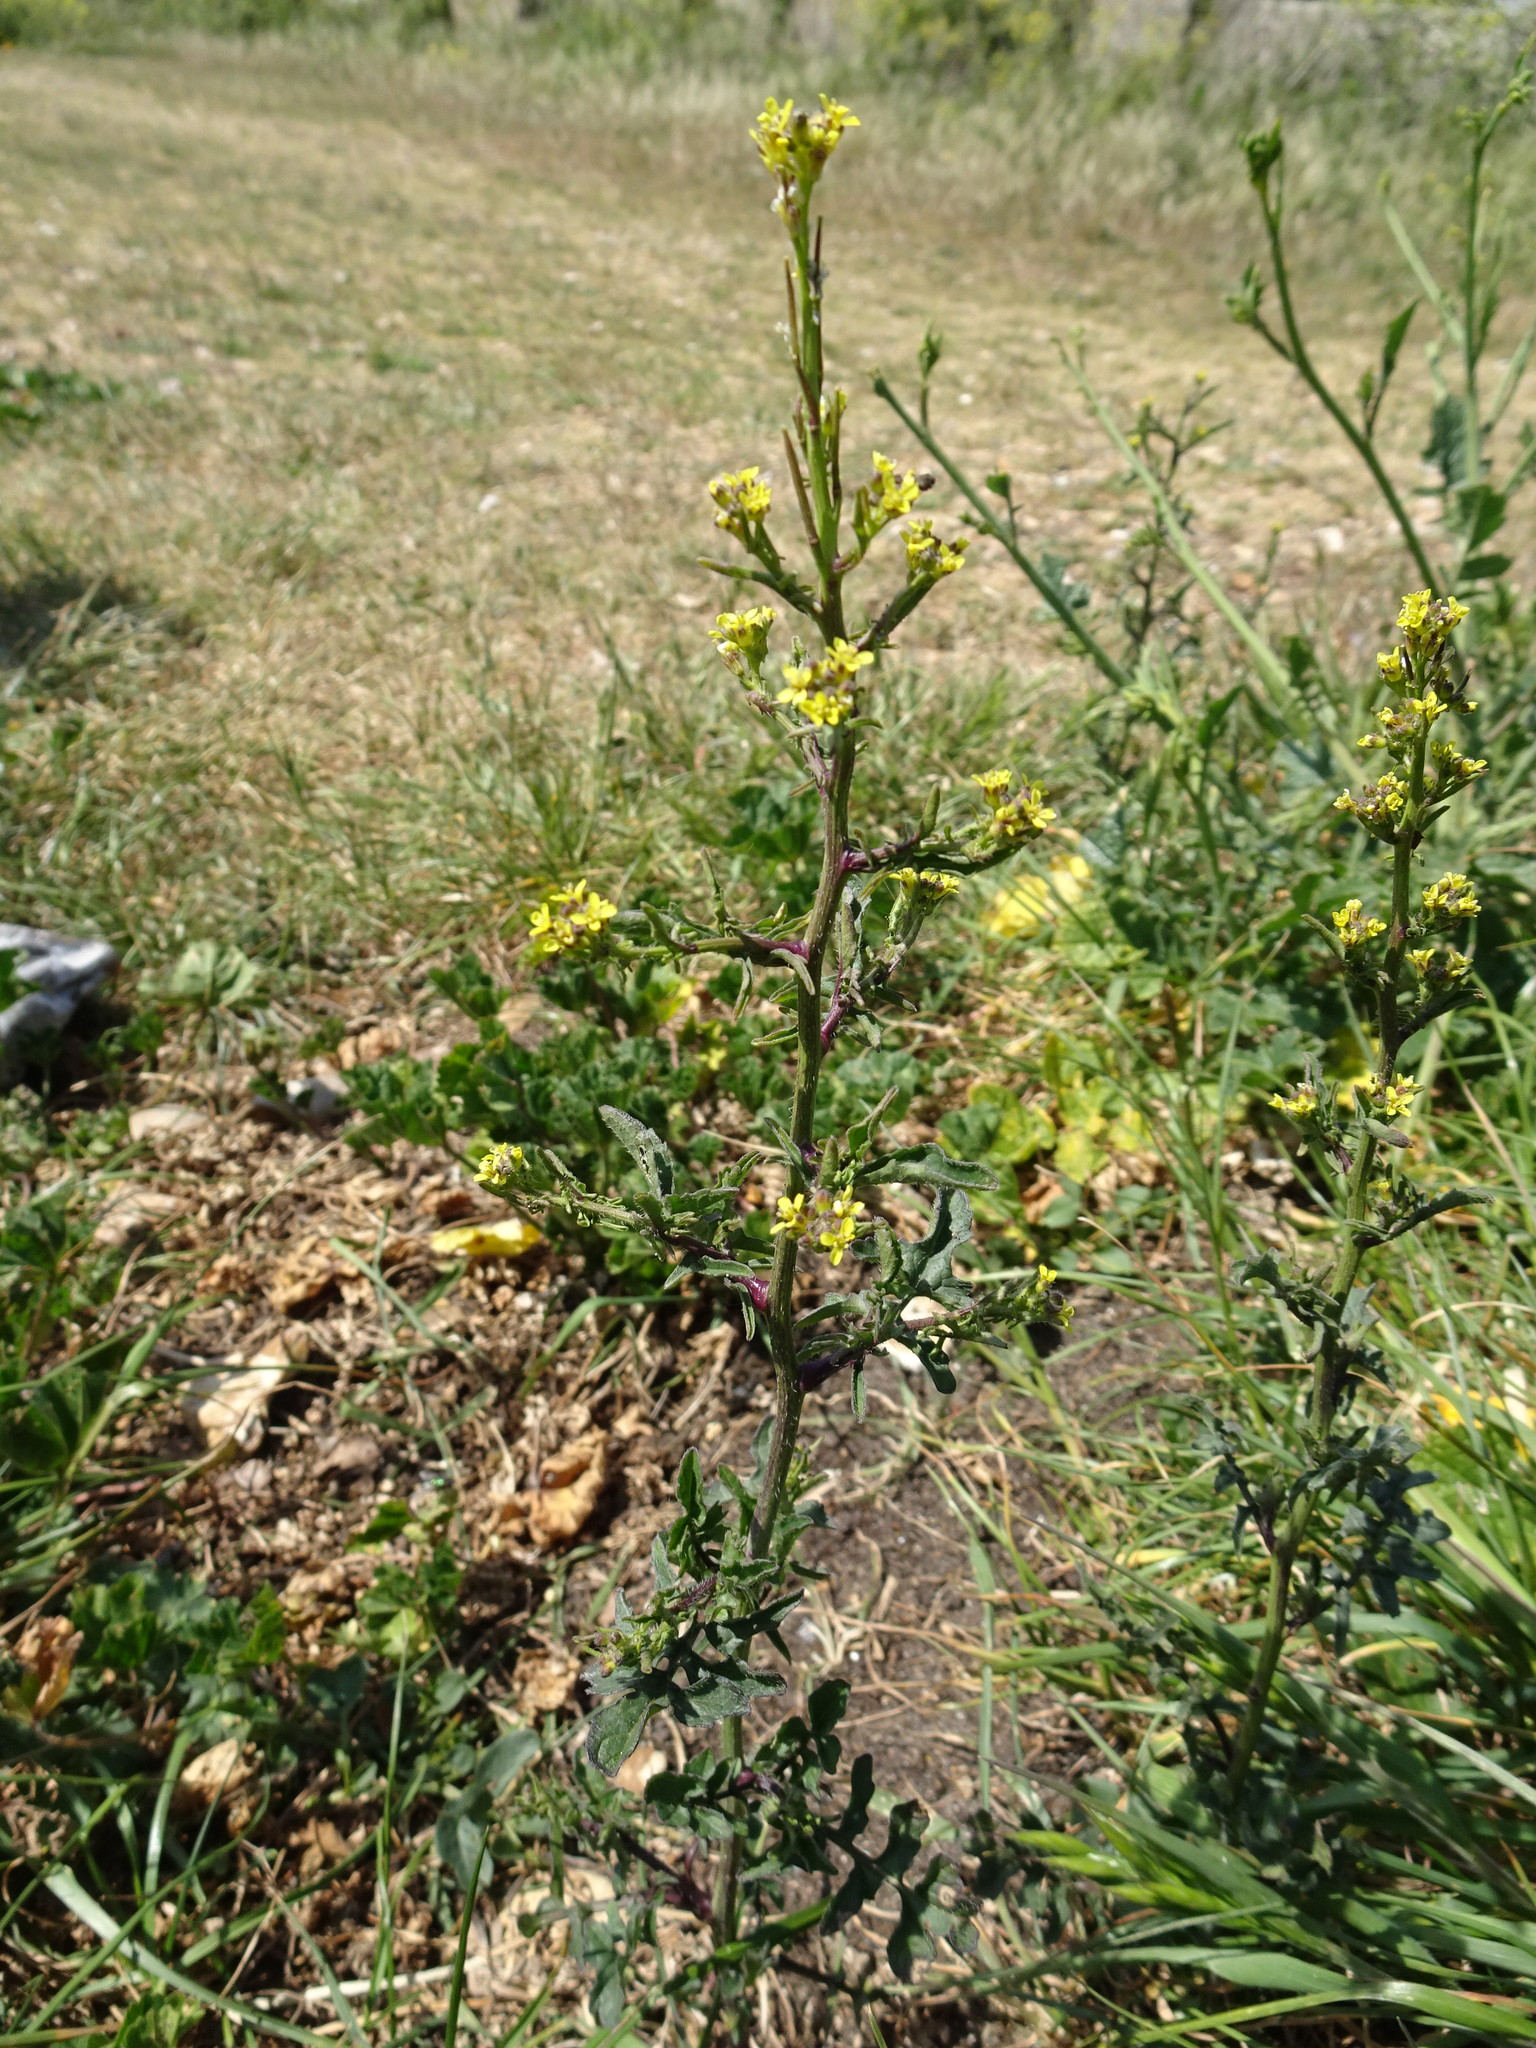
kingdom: Plantae
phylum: Tracheophyta
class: Magnoliopsida
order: Brassicales
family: Brassicaceae
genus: Sisymbrium
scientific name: Sisymbrium officinale
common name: Hedge mustard
